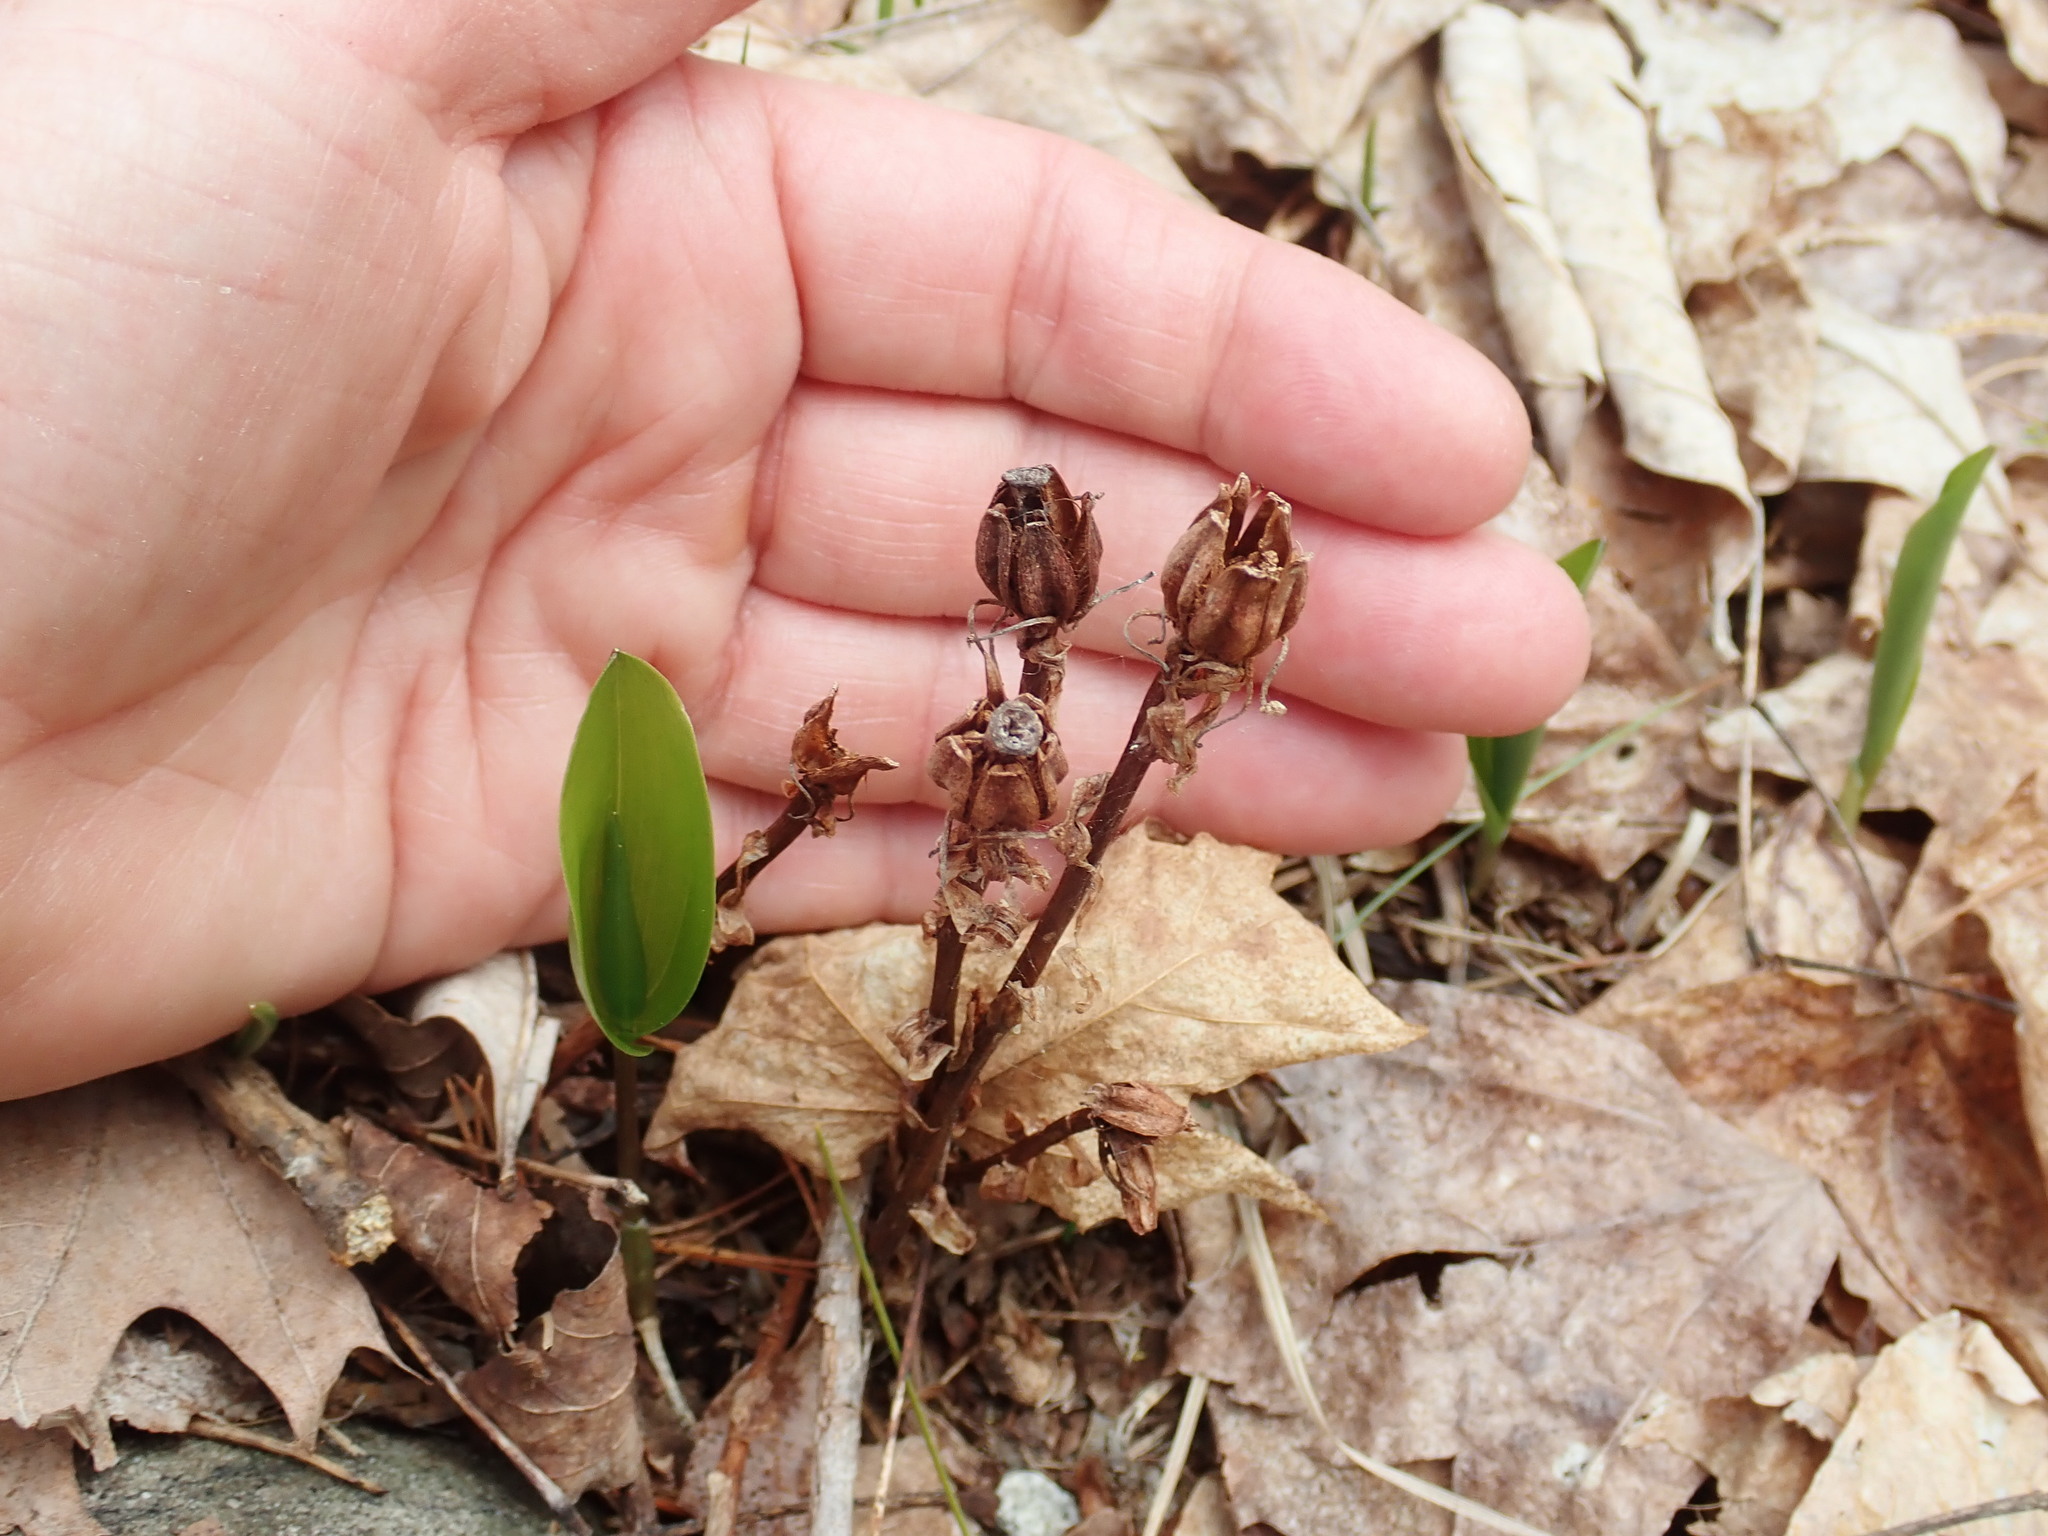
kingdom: Plantae
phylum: Tracheophyta
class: Magnoliopsida
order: Ericales
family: Ericaceae
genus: Monotropa
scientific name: Monotropa uniflora
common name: Convulsion root
